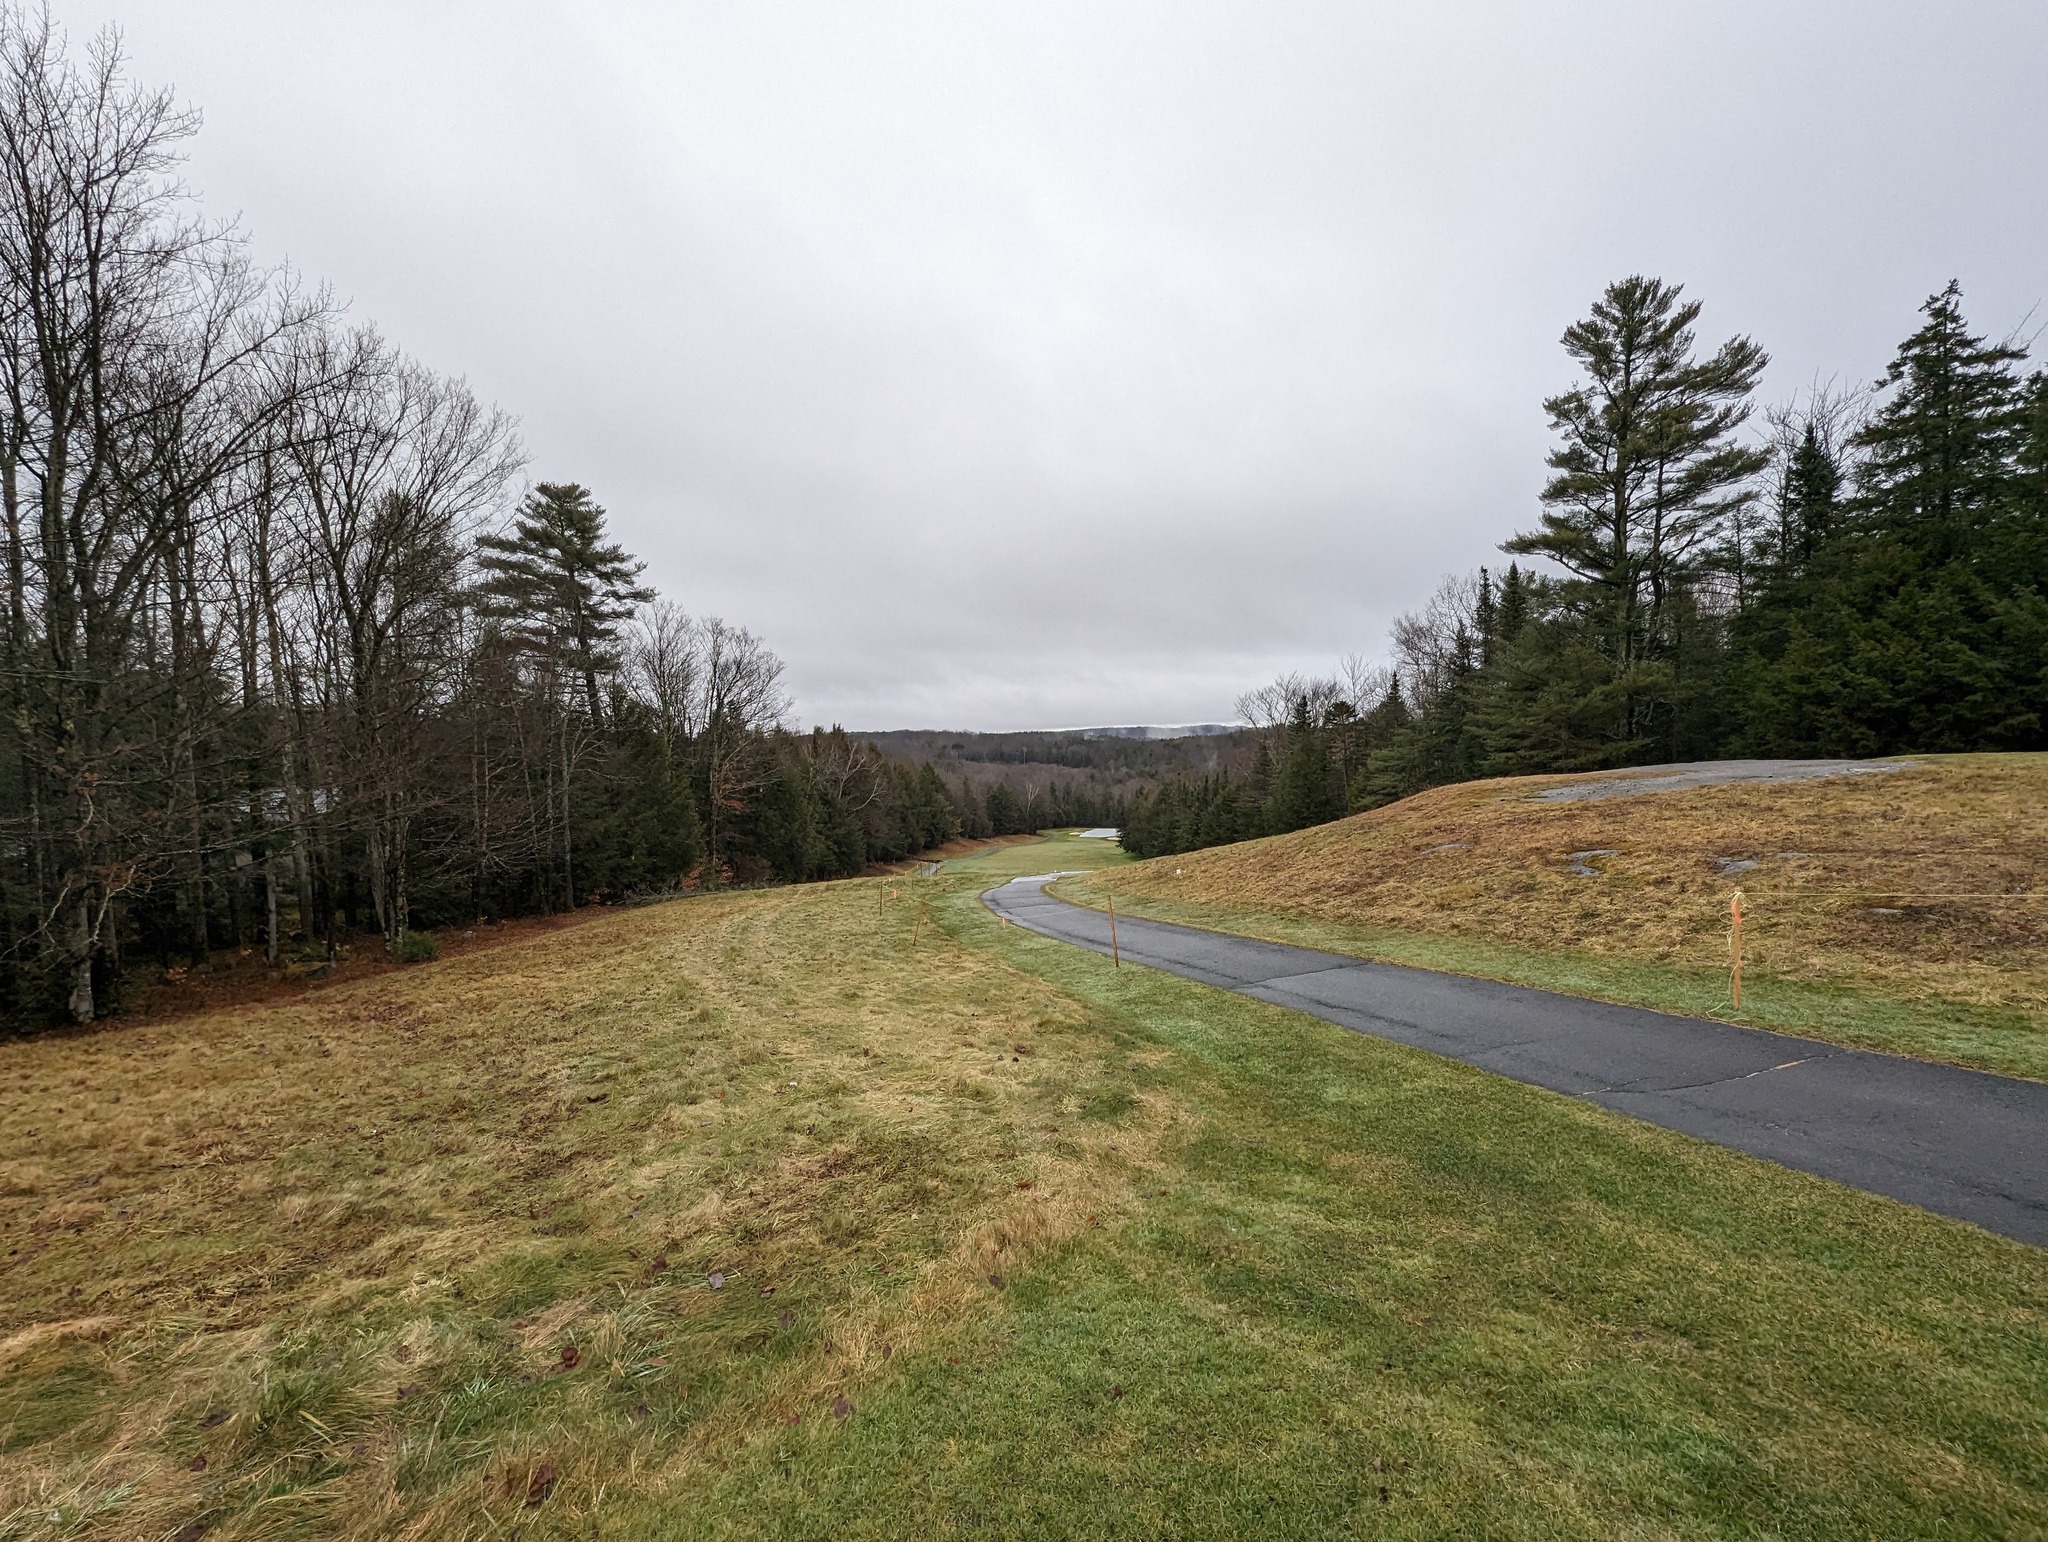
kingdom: Plantae
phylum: Tracheophyta
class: Pinopsida
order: Pinales
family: Pinaceae
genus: Pinus
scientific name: Pinus strobus
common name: Weymouth pine
